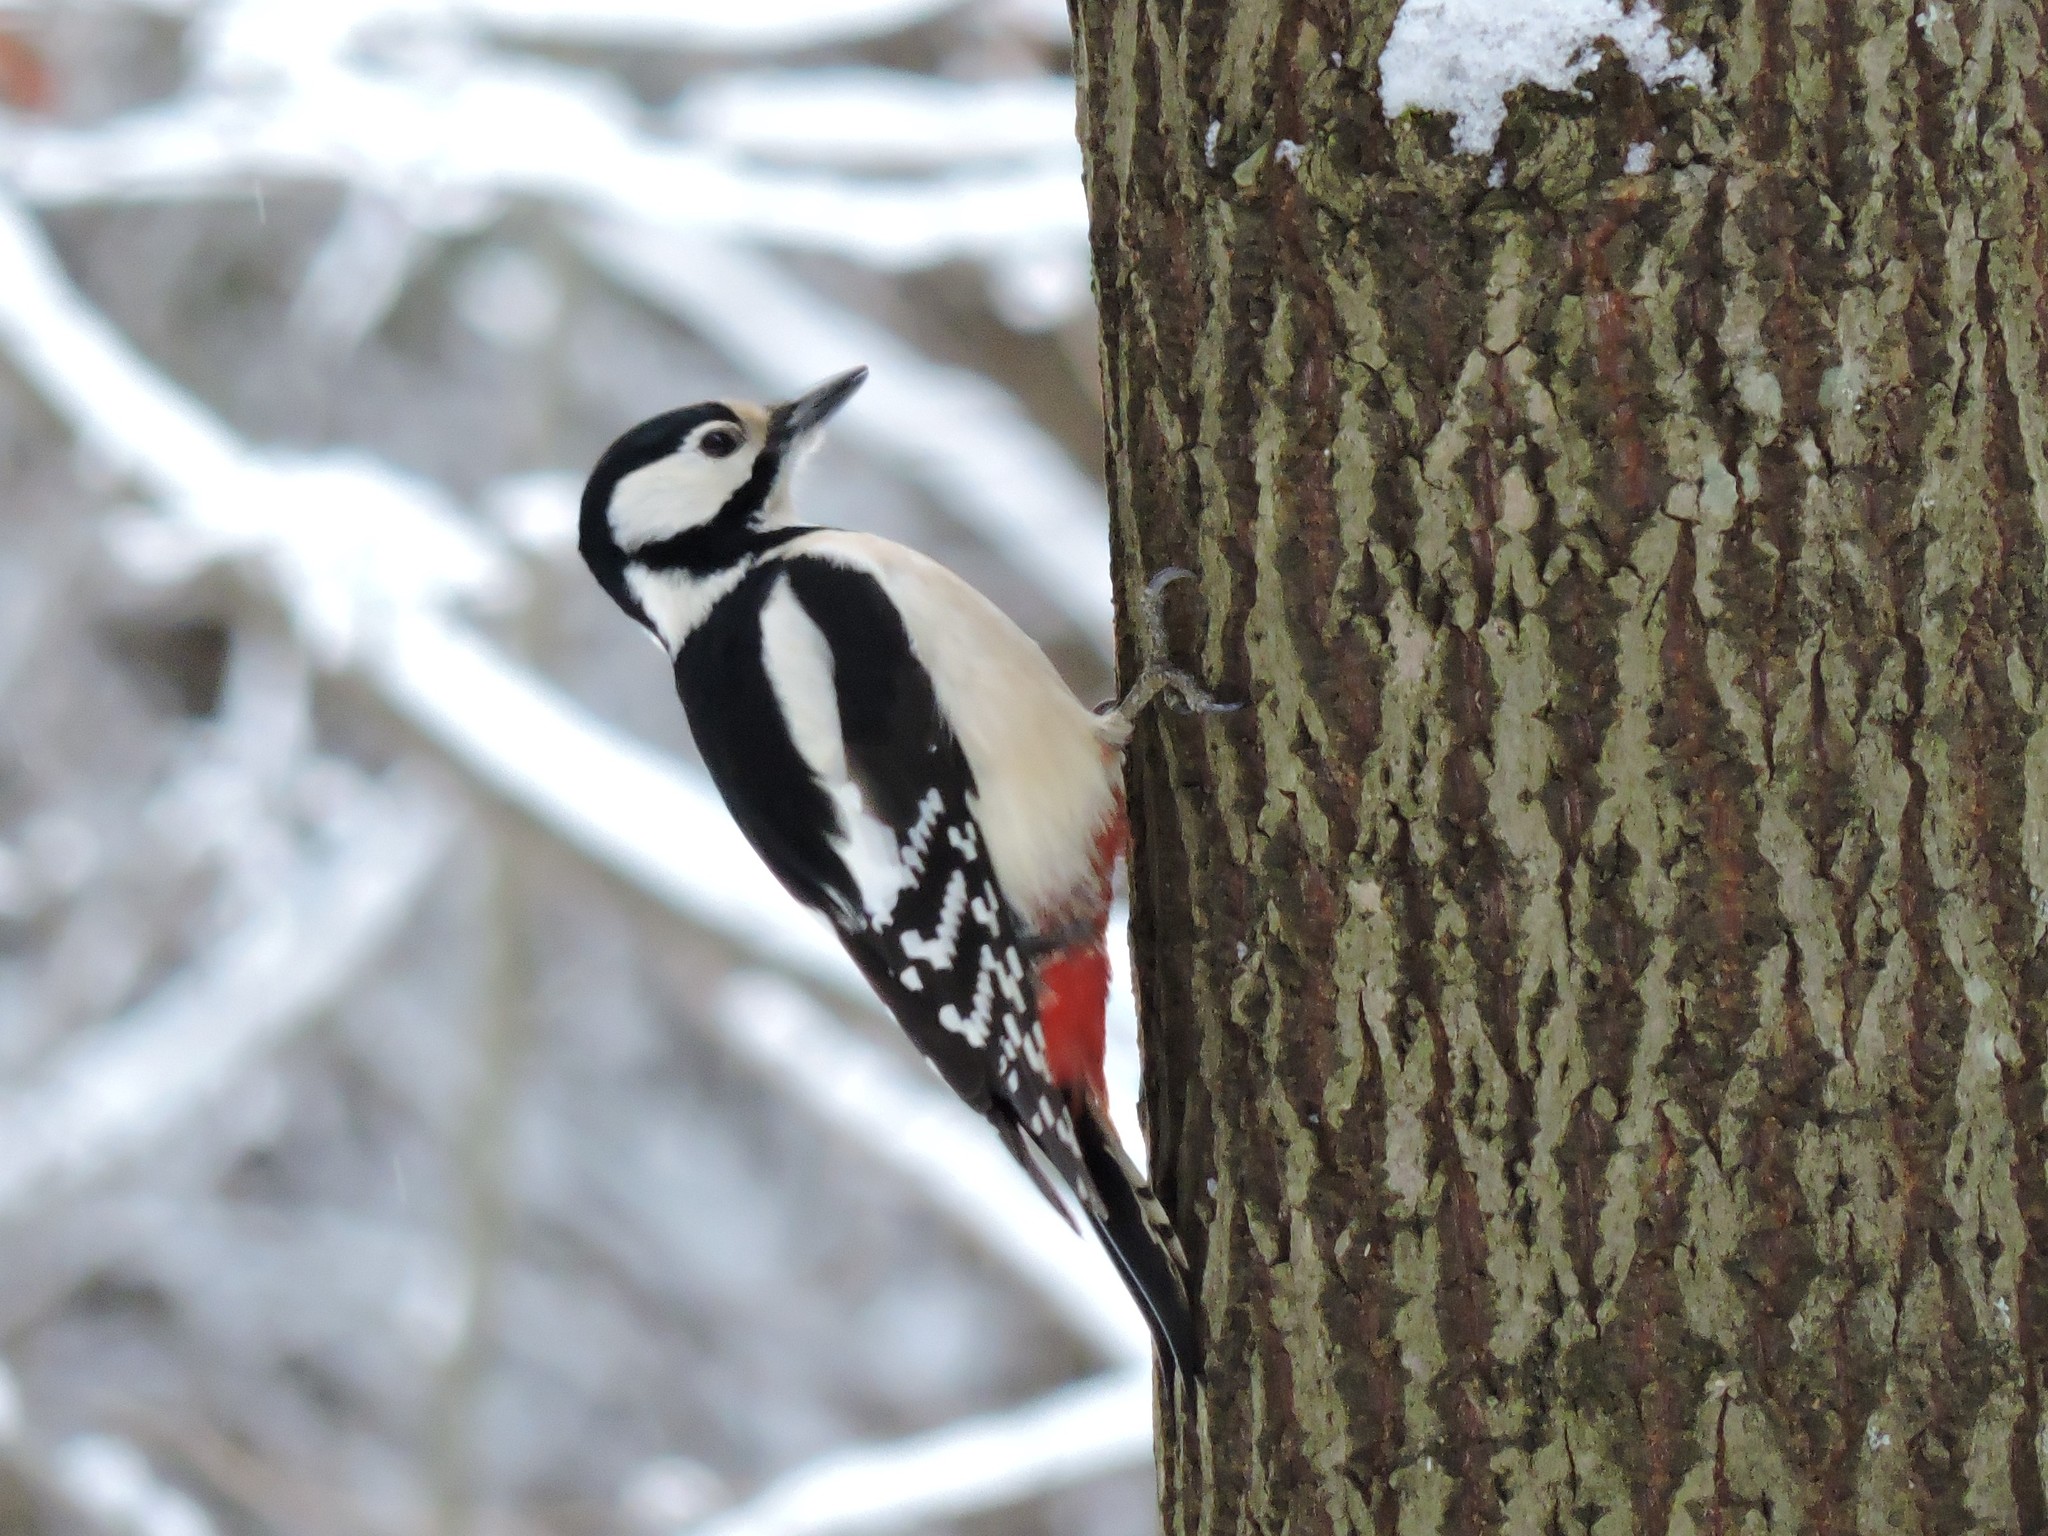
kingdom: Animalia
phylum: Chordata
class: Aves
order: Piciformes
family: Picidae
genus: Dendrocopos
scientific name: Dendrocopos major
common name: Great spotted woodpecker
